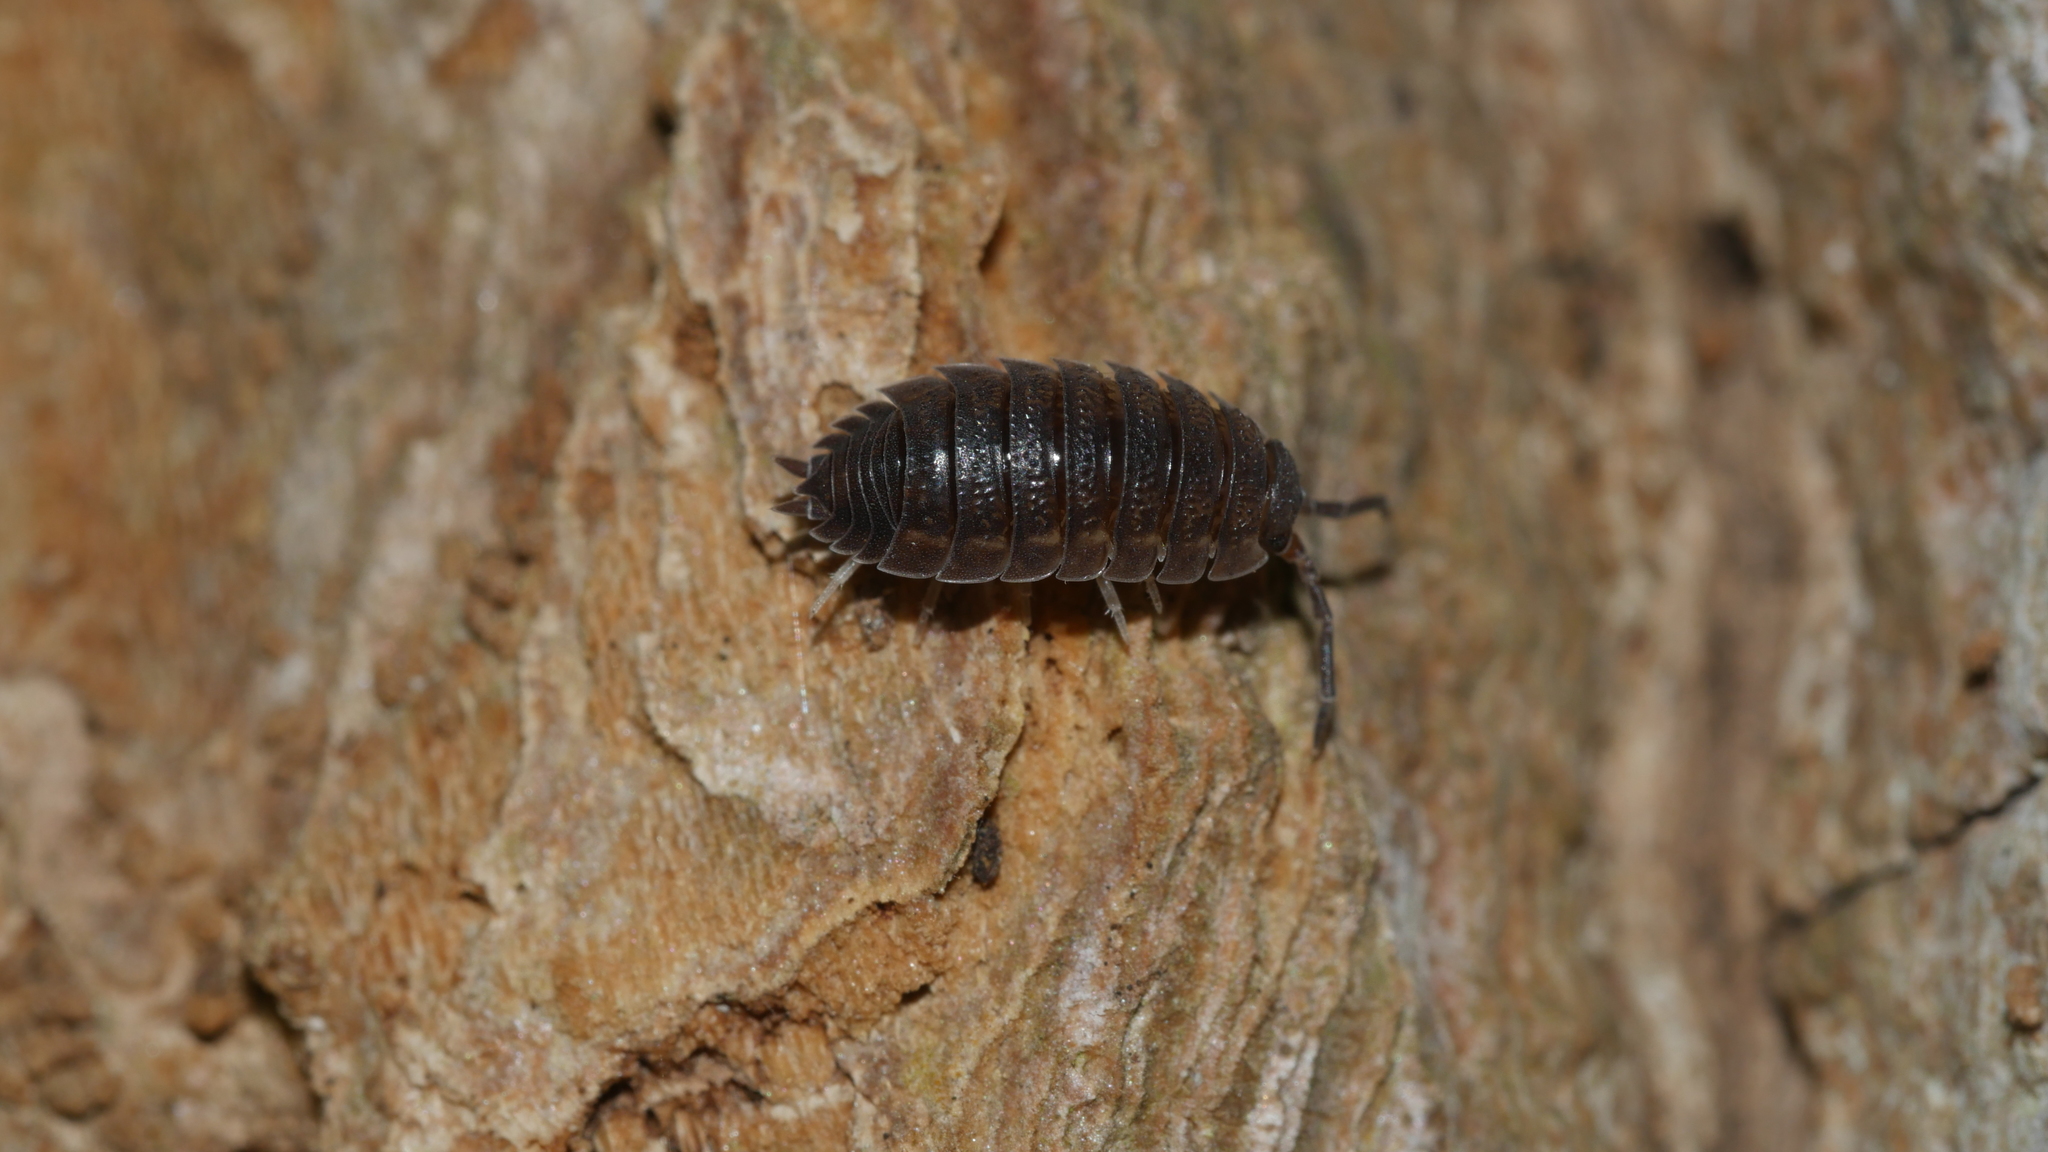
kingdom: Animalia
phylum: Arthropoda
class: Malacostraca
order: Isopoda
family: Porcellionidae
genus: Porcellio
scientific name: Porcellio scaber
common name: Common rough woodlouse
